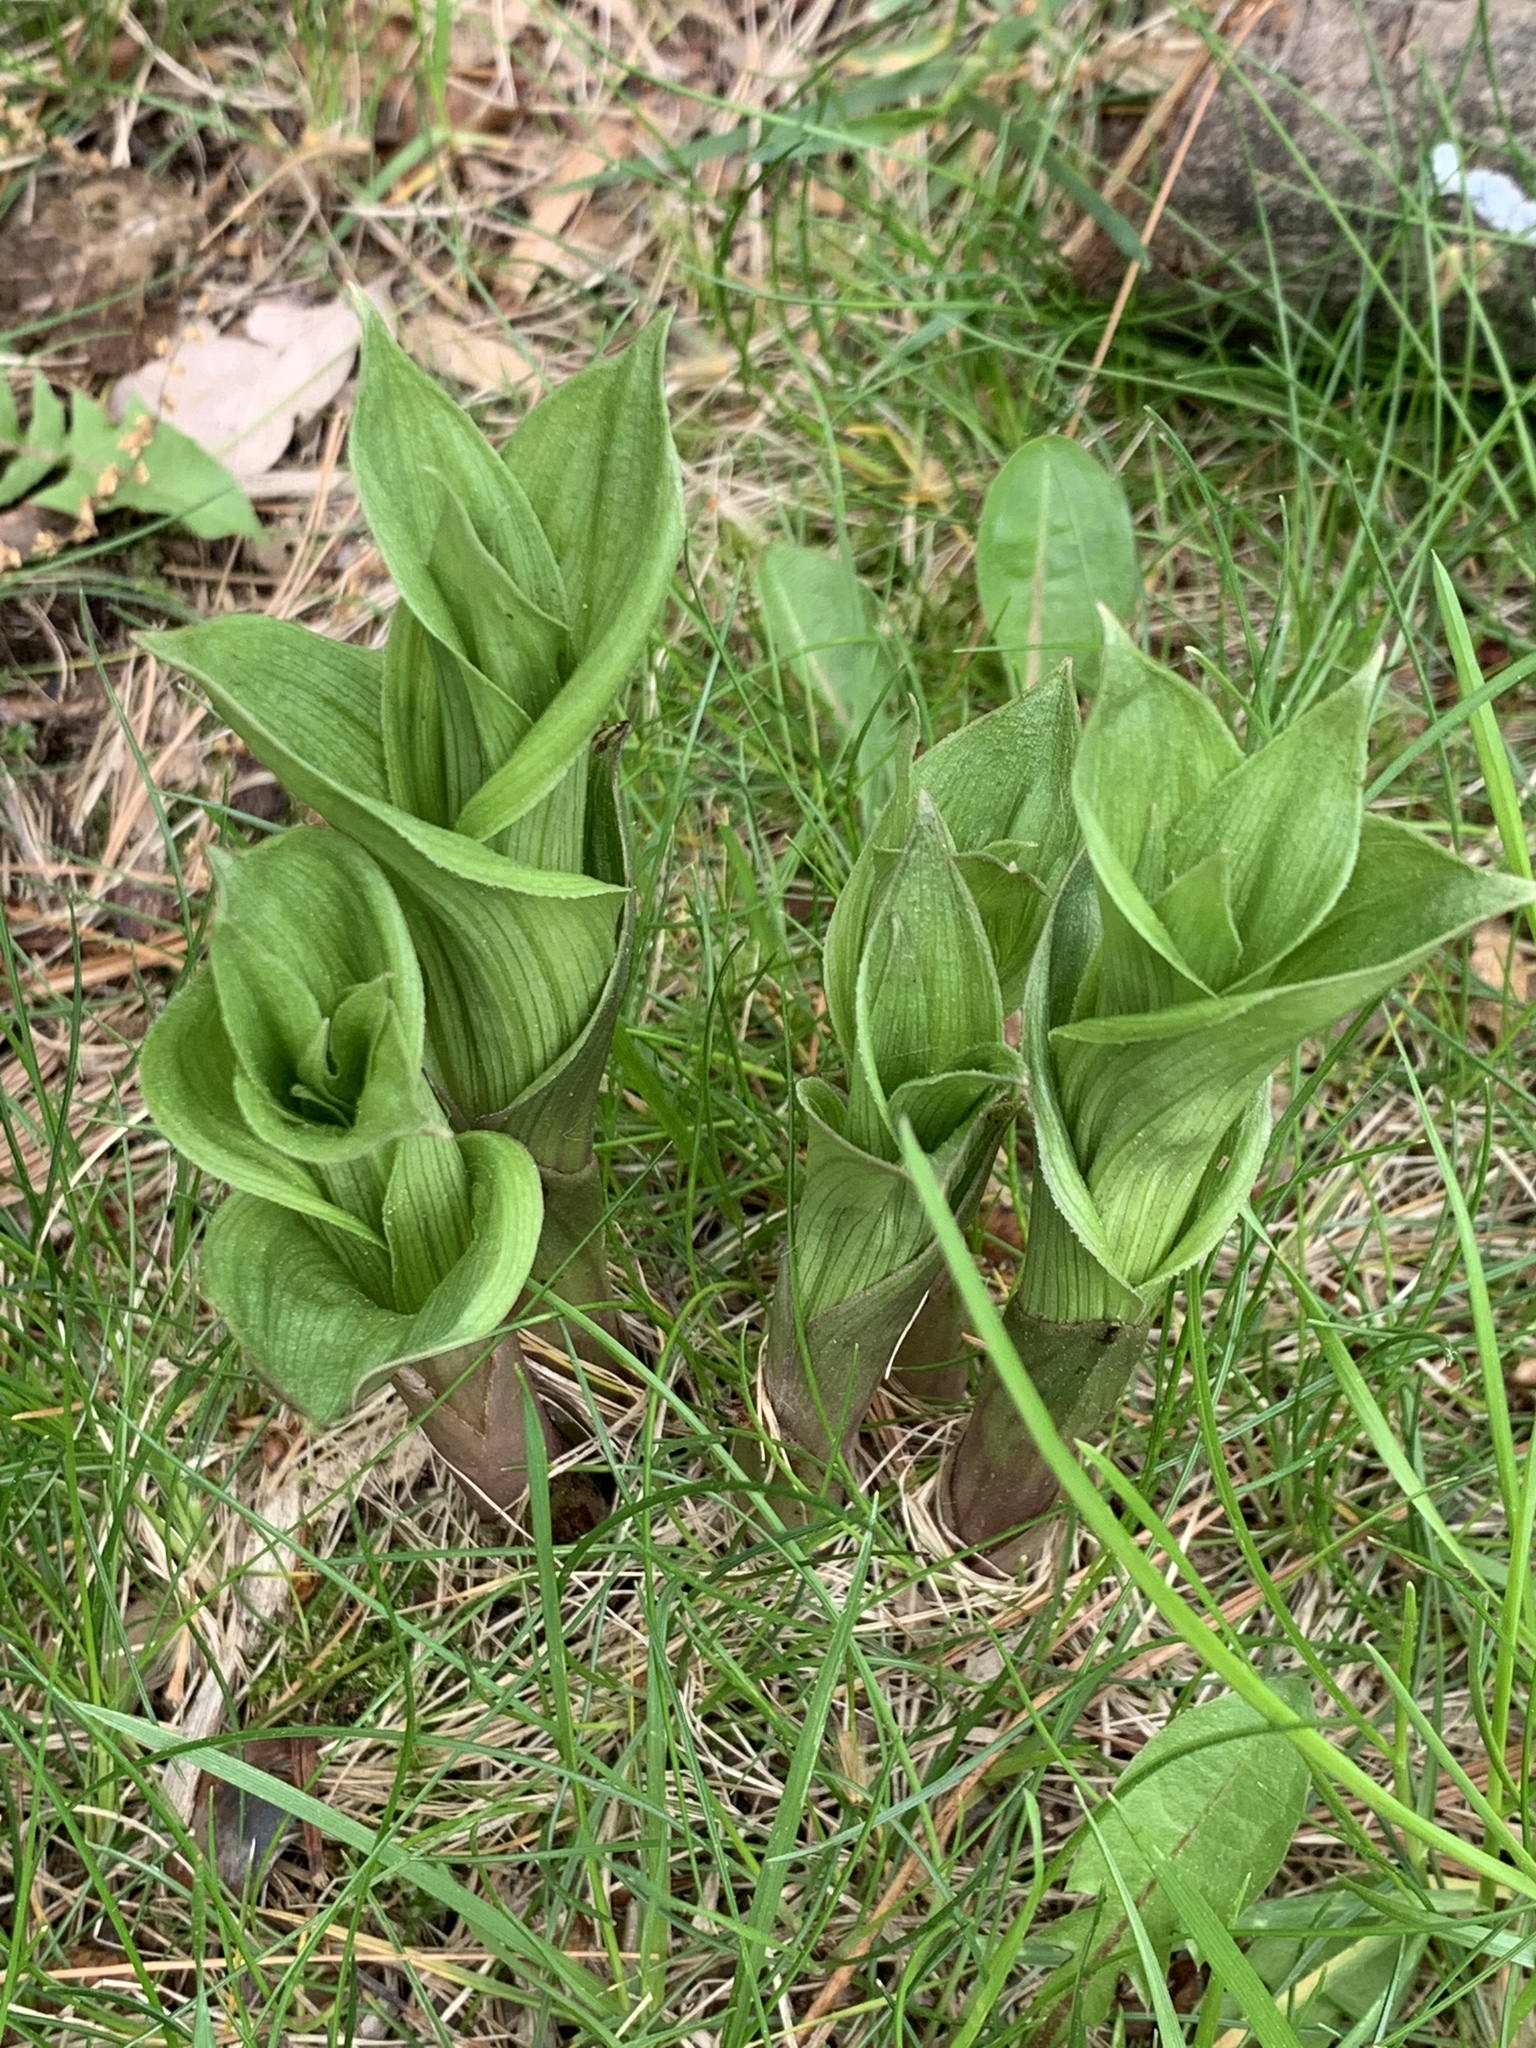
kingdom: Plantae
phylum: Tracheophyta
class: Liliopsida
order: Asparagales
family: Orchidaceae
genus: Epipactis
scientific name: Epipactis helleborine
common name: Broad-leaved helleborine
